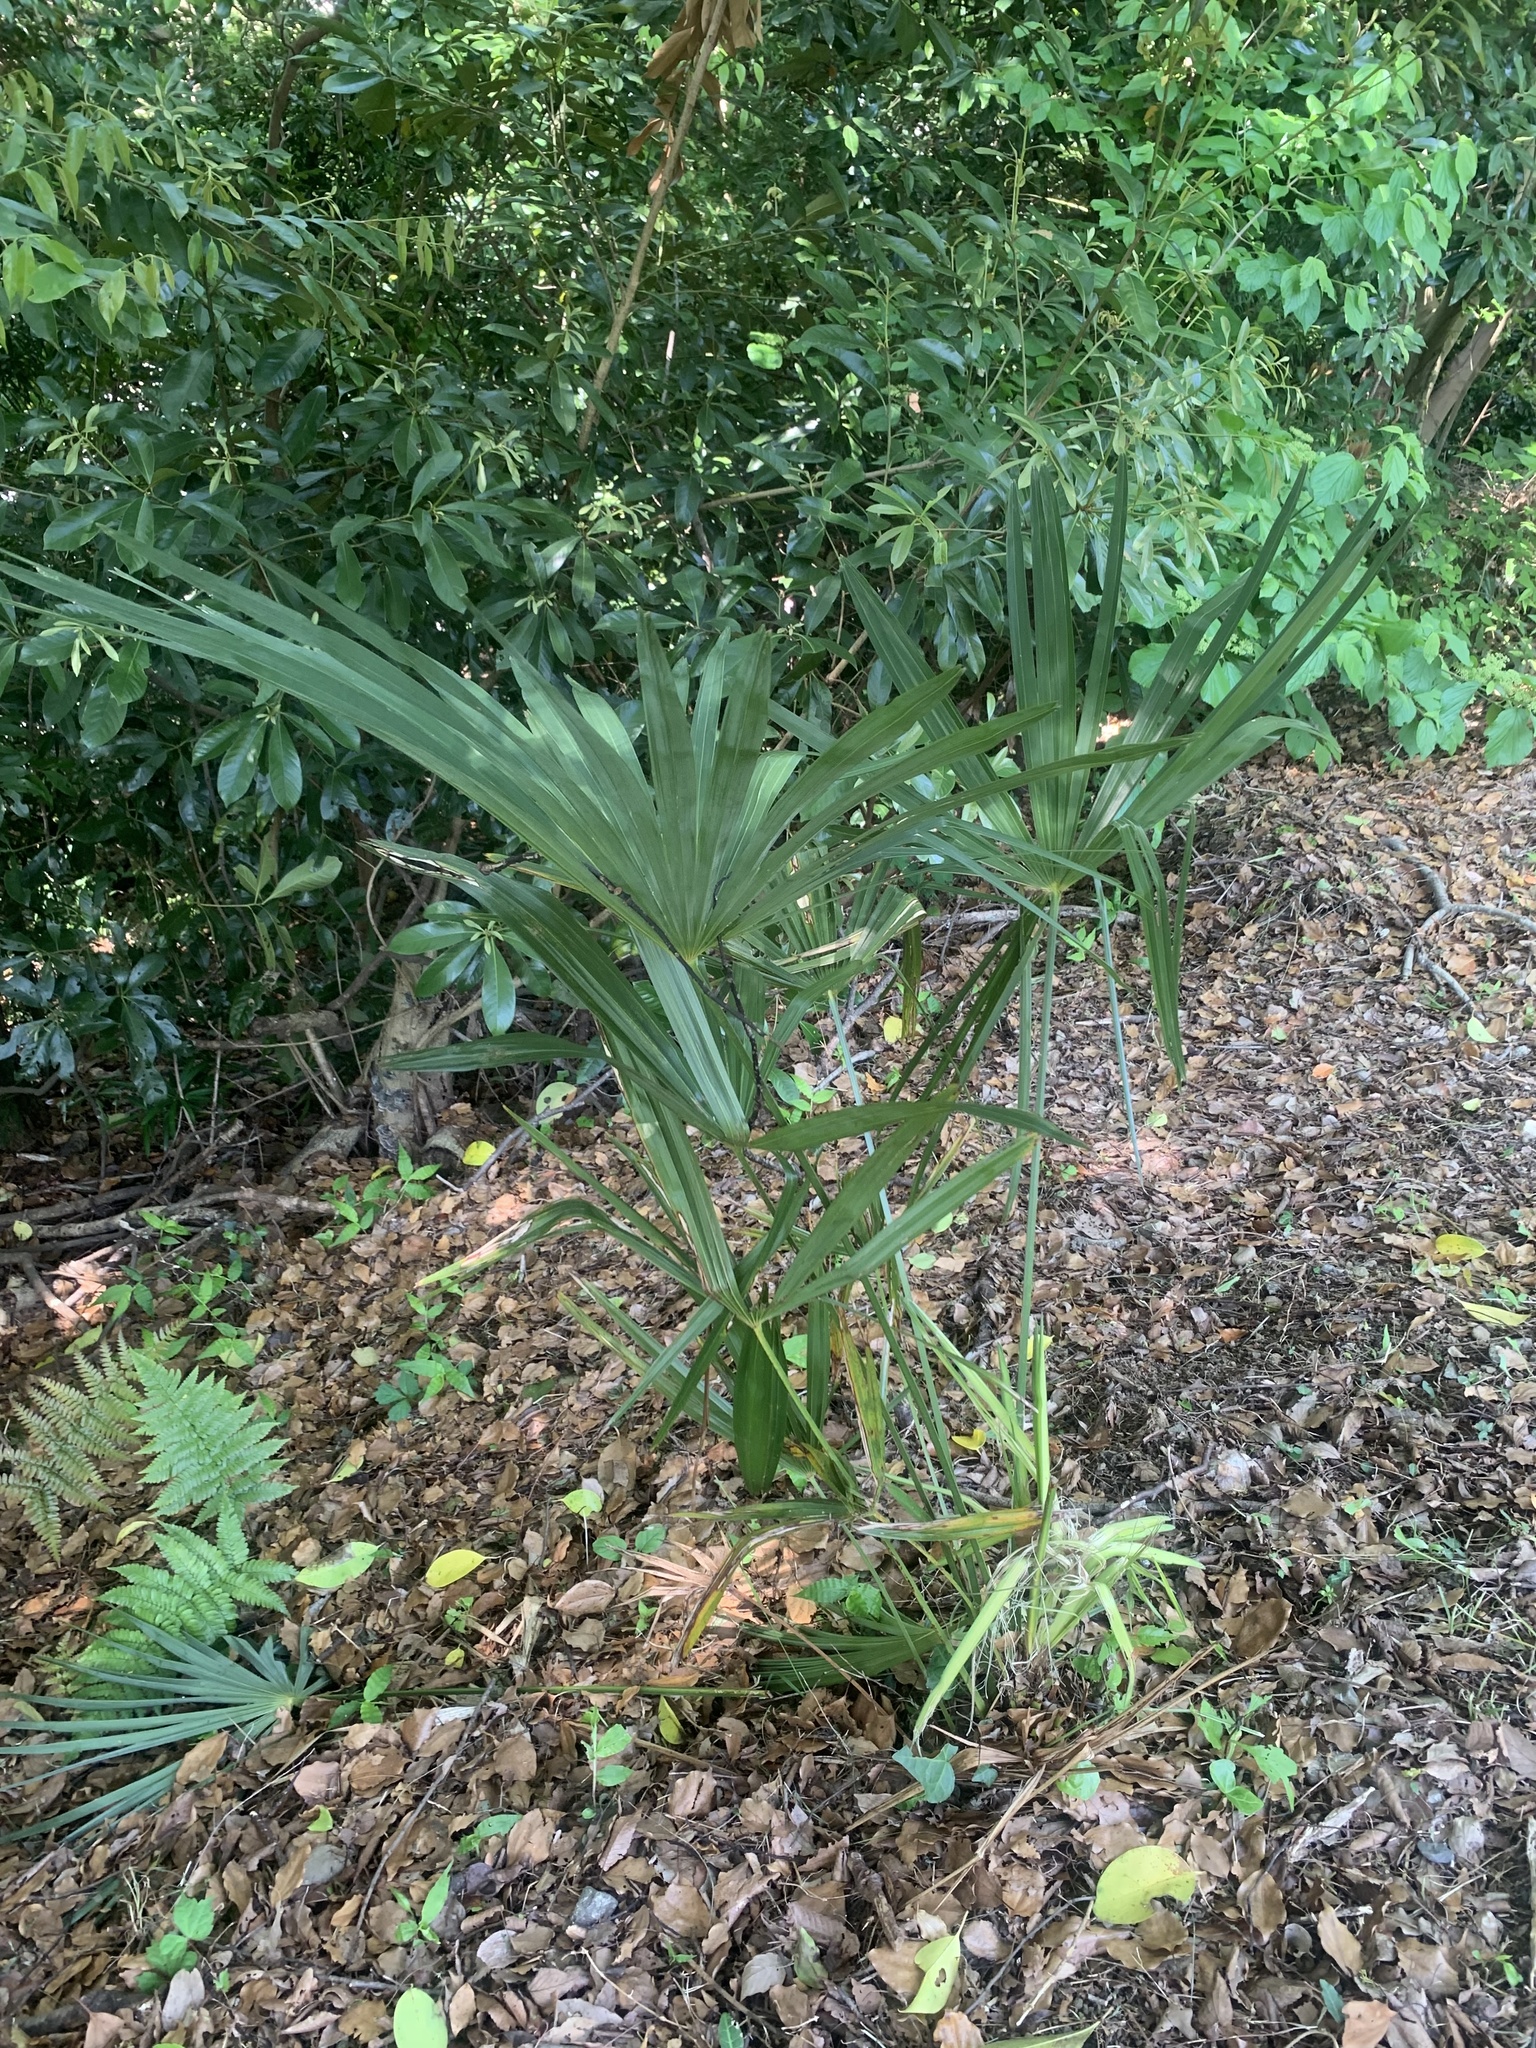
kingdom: Plantae
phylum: Tracheophyta
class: Liliopsida
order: Arecales
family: Arecaceae
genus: Trachycarpus
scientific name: Trachycarpus fortunei
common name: Chusan palm
